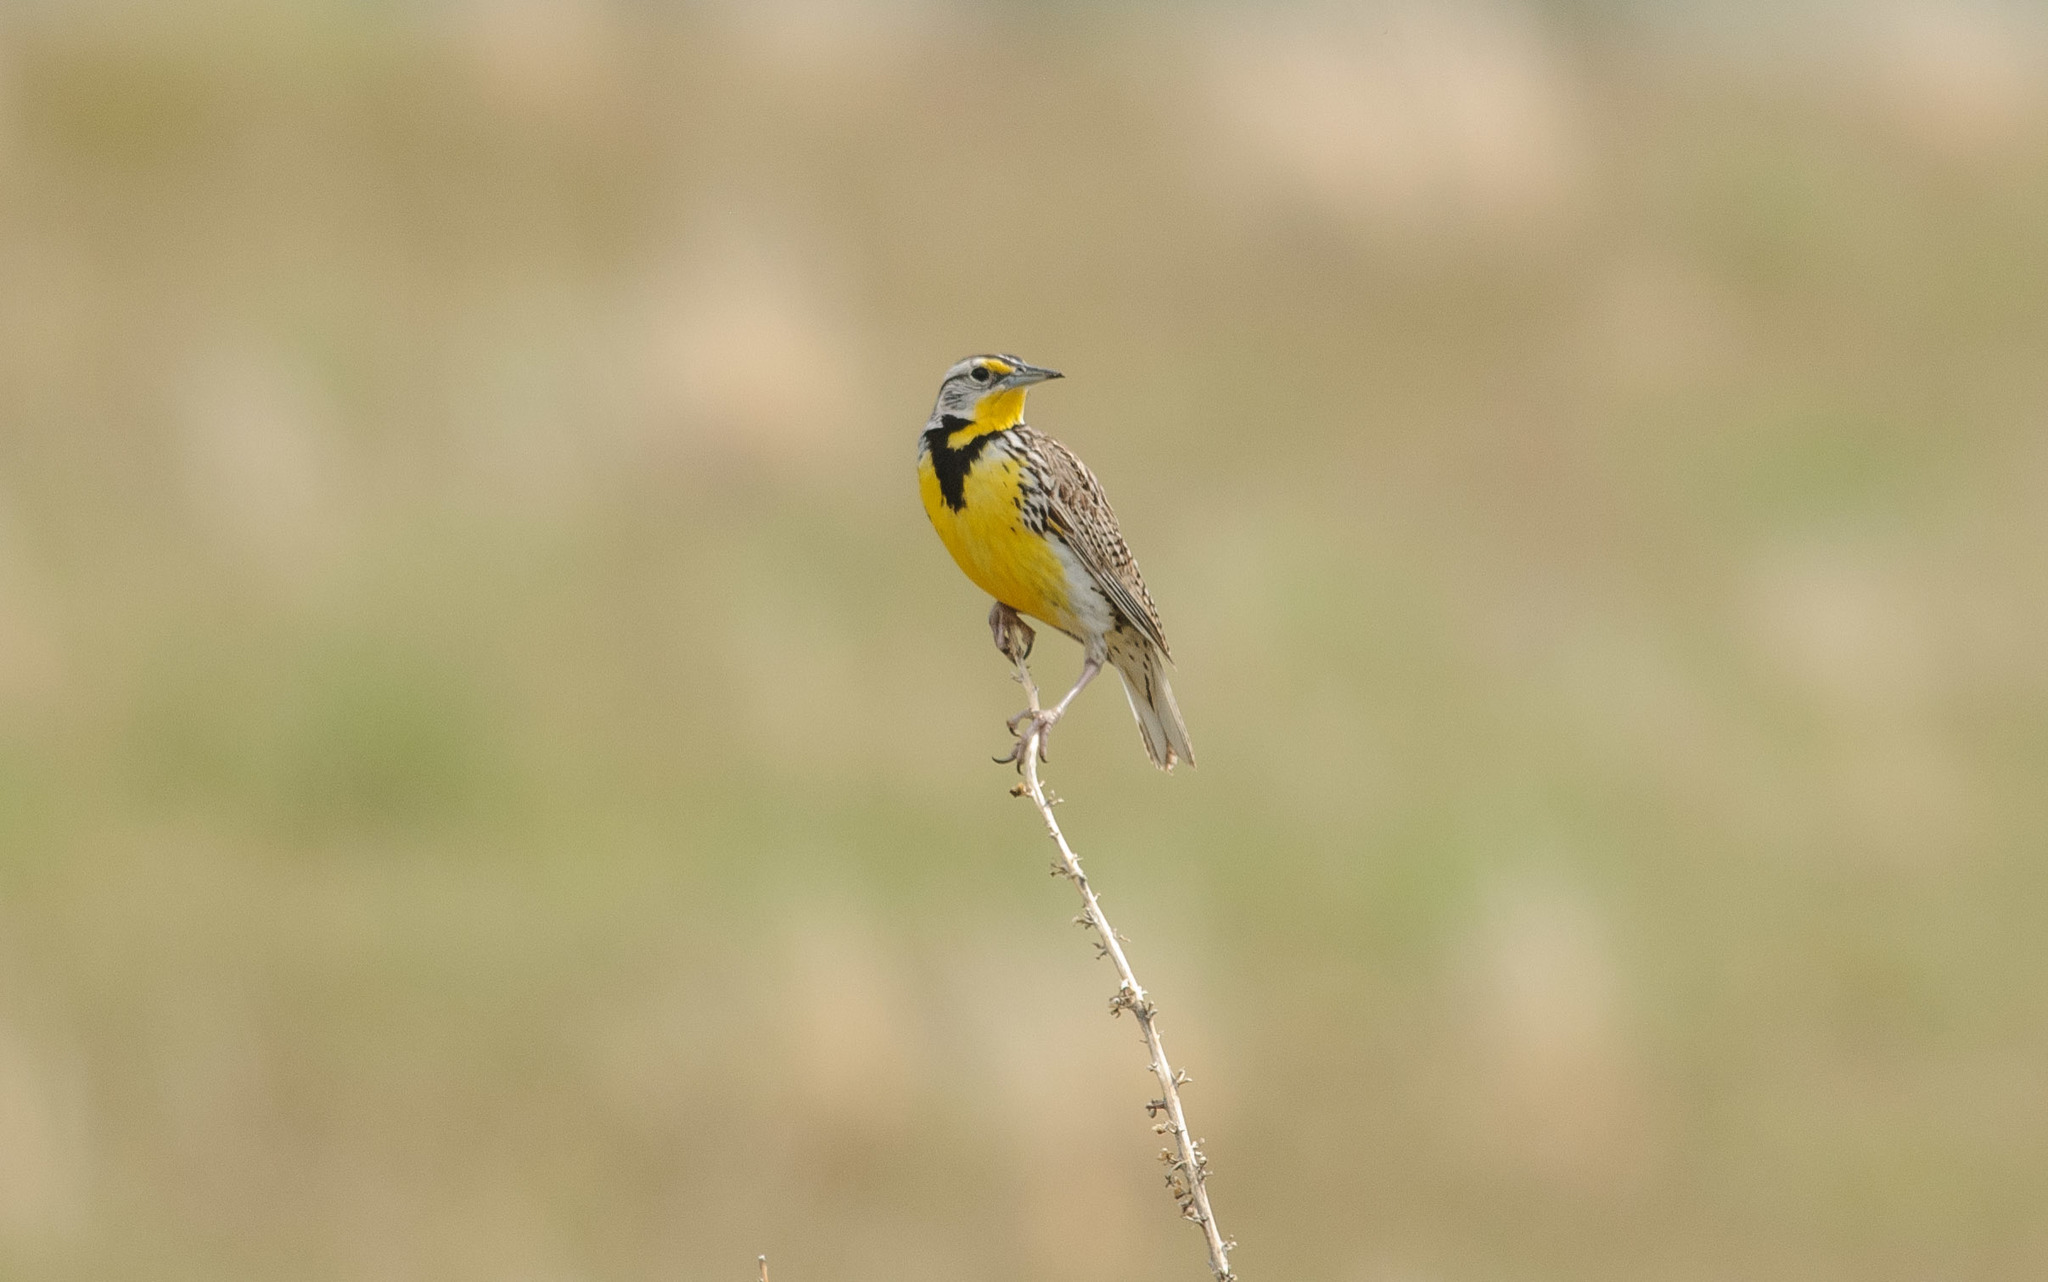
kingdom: Animalia
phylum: Chordata
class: Aves
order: Passeriformes
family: Icteridae
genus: Sturnella
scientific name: Sturnella neglecta
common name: Western meadowlark
